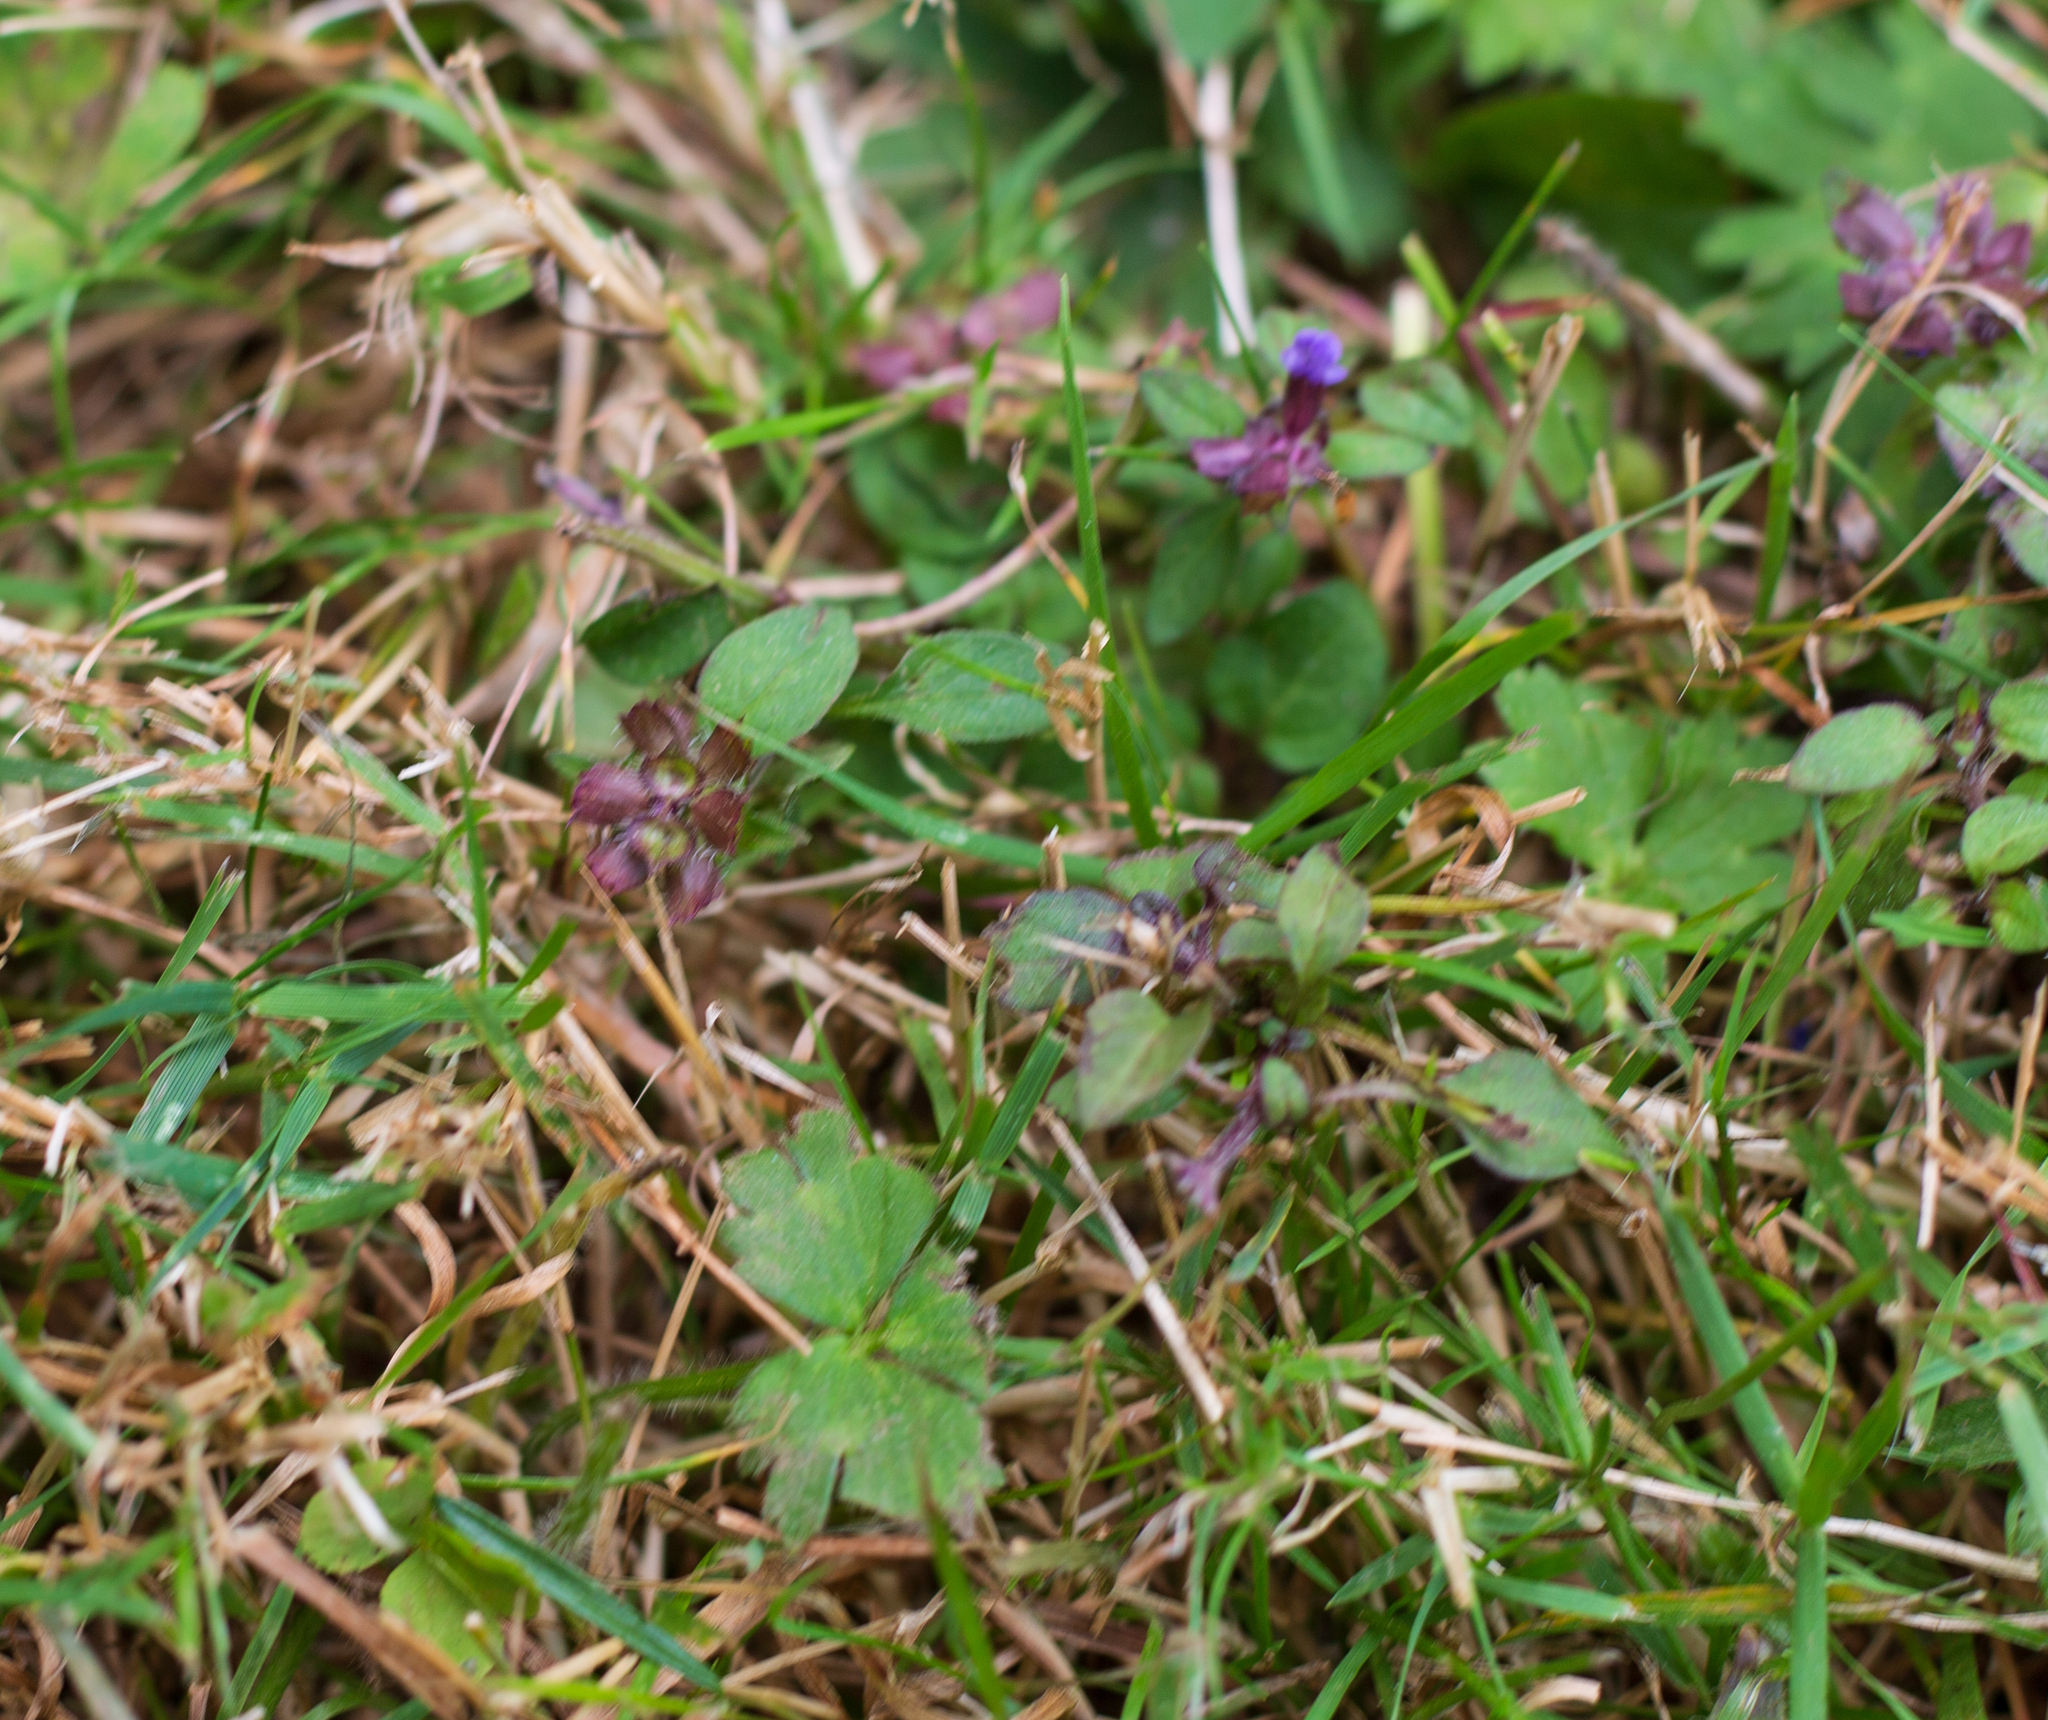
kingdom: Plantae
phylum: Tracheophyta
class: Magnoliopsida
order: Lamiales
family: Lamiaceae
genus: Prunella
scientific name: Prunella vulgaris
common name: Heal-all
